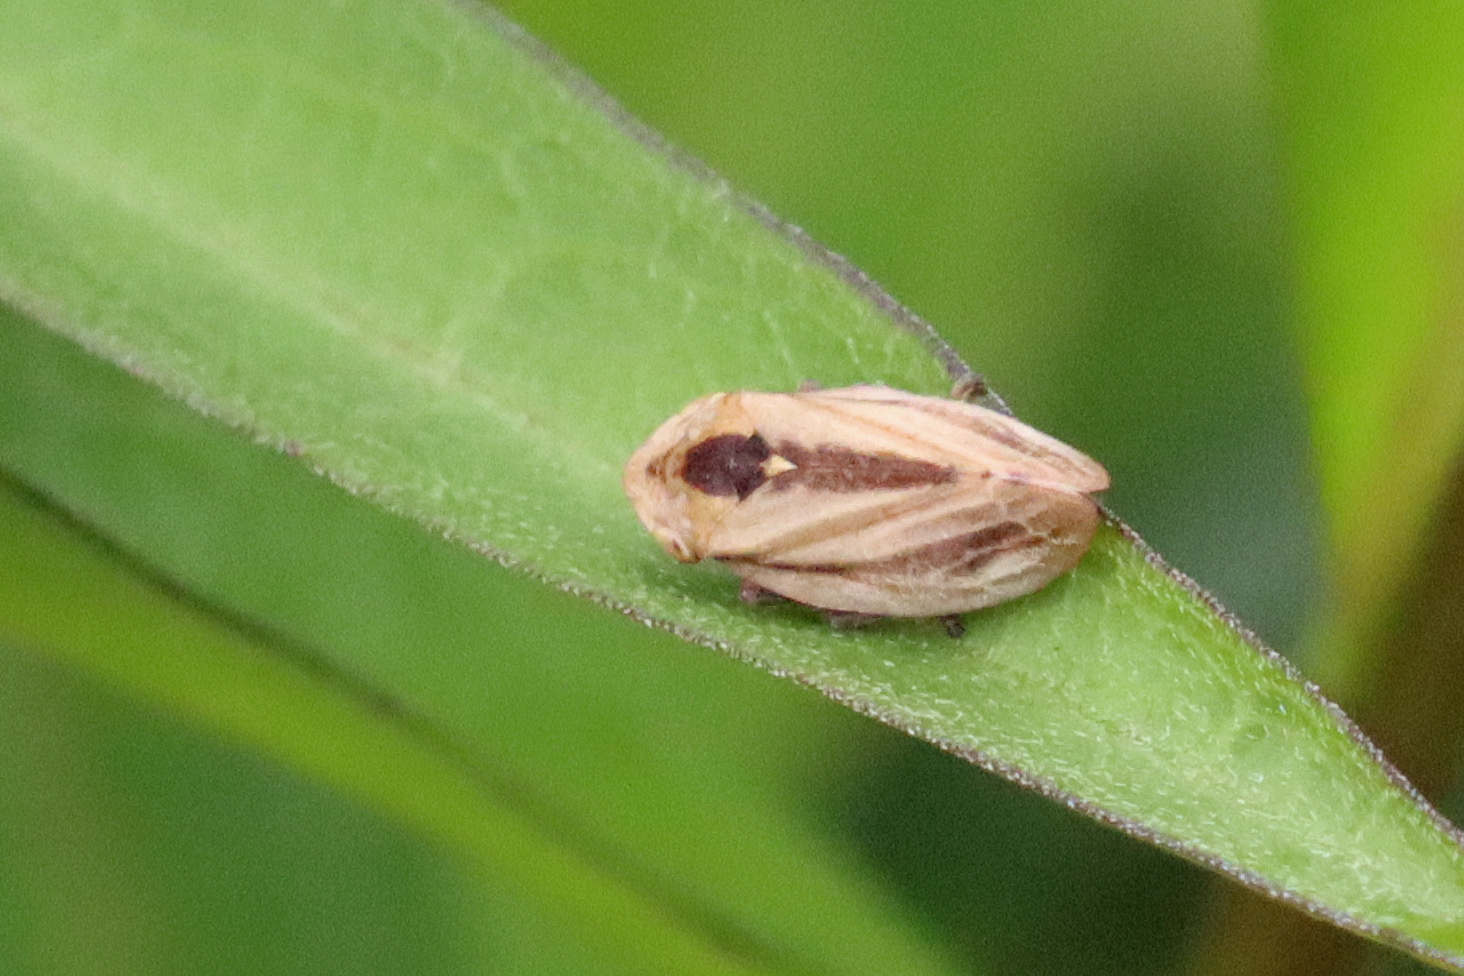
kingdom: Animalia
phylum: Arthropoda
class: Insecta
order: Hemiptera
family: Aphrophoridae
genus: Philaenus
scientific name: Philaenus spumarius
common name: Meadow spittlebug
